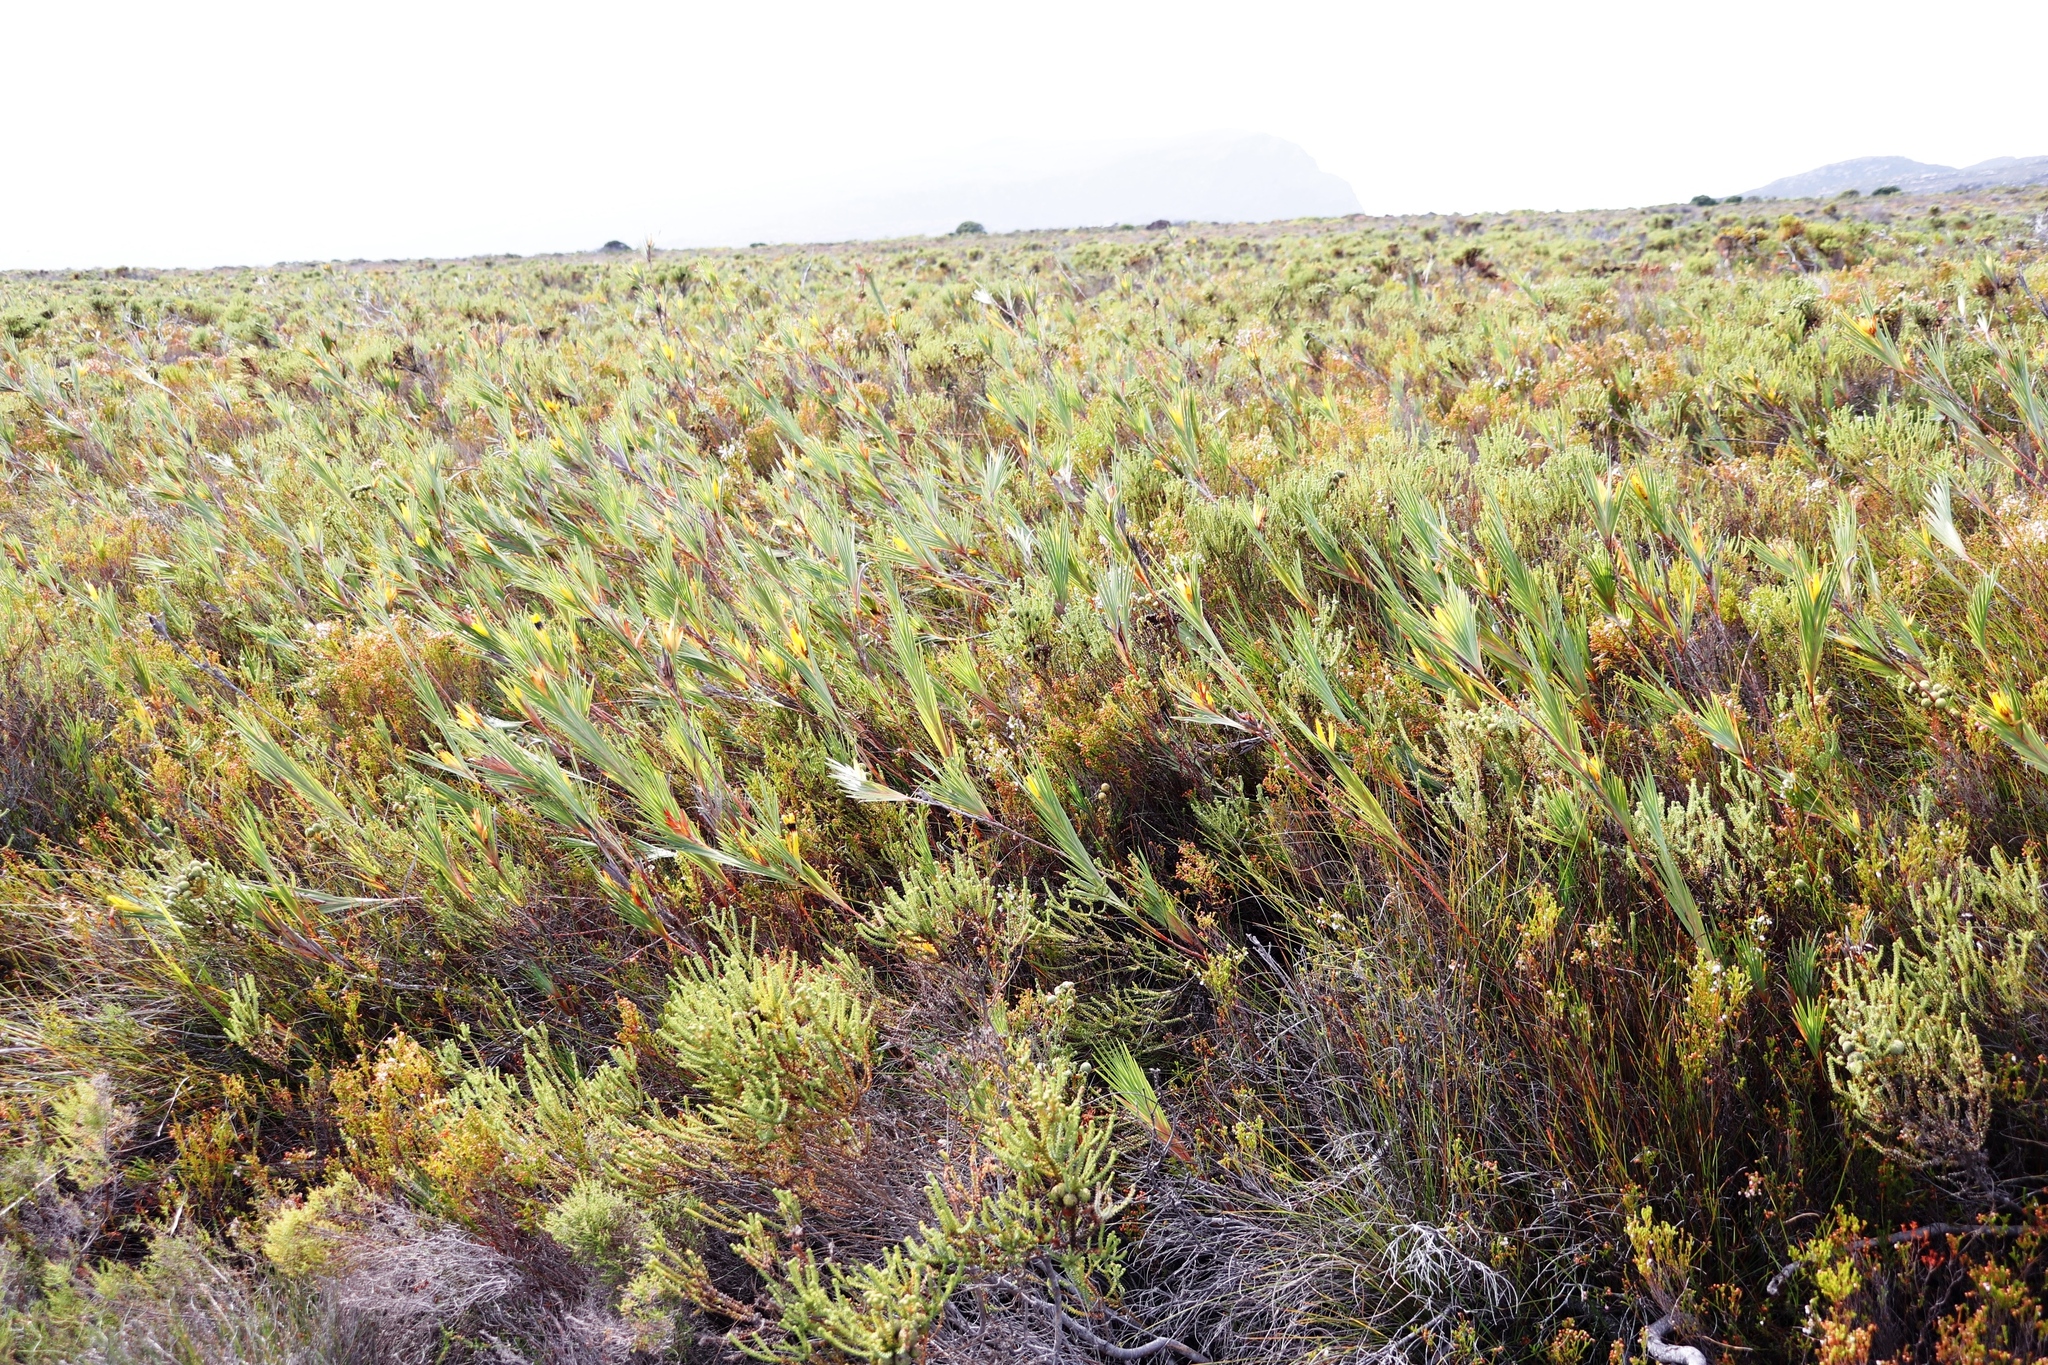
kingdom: Plantae
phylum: Tracheophyta
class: Liliopsida
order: Asparagales
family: Iridaceae
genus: Witsenia
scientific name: Witsenia maura
